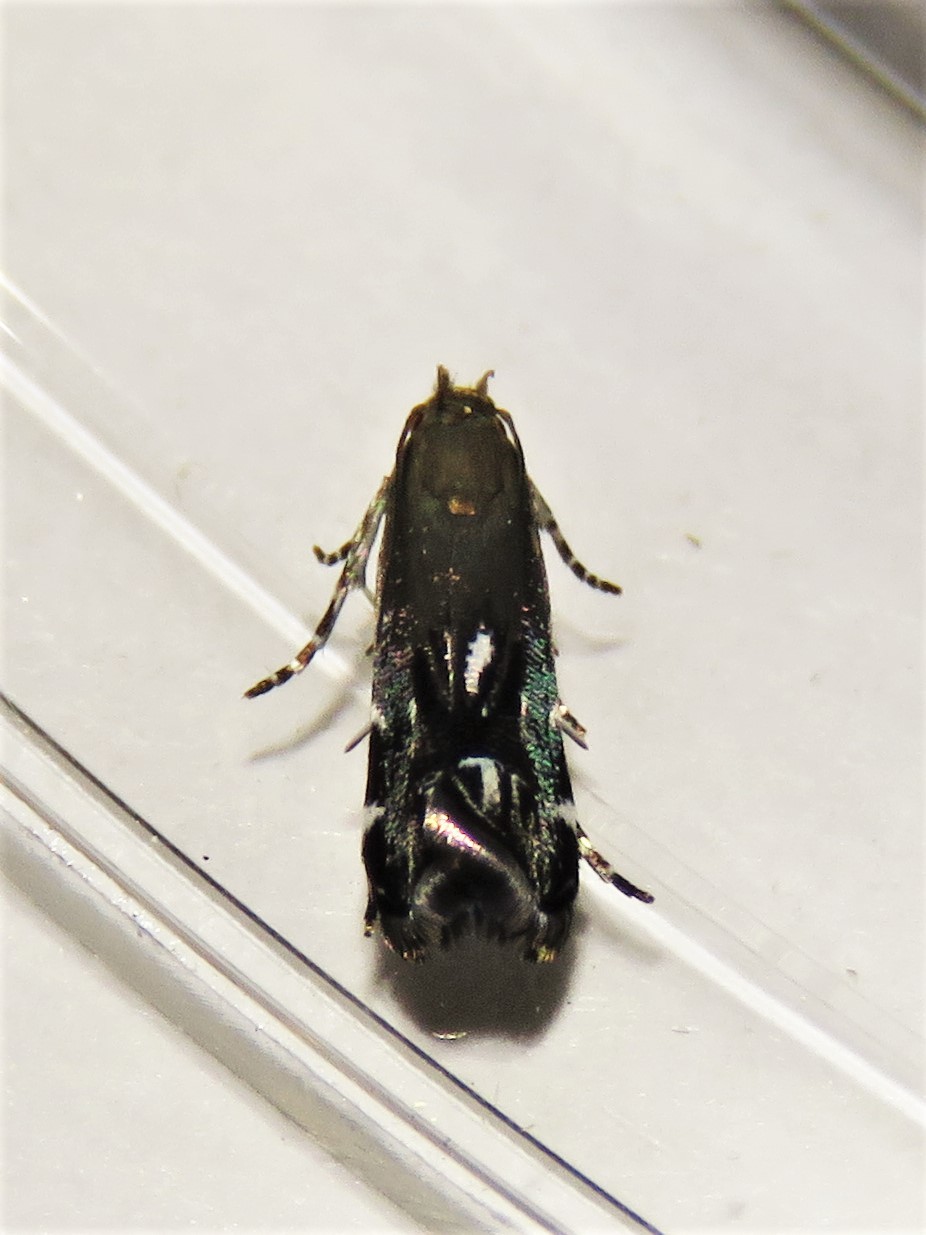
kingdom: Animalia
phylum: Arthropoda
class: Insecta
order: Lepidoptera
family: Gelechiidae
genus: Anacampsis
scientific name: Anacampsis levipedella
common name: Silver-dashed anacampsis
